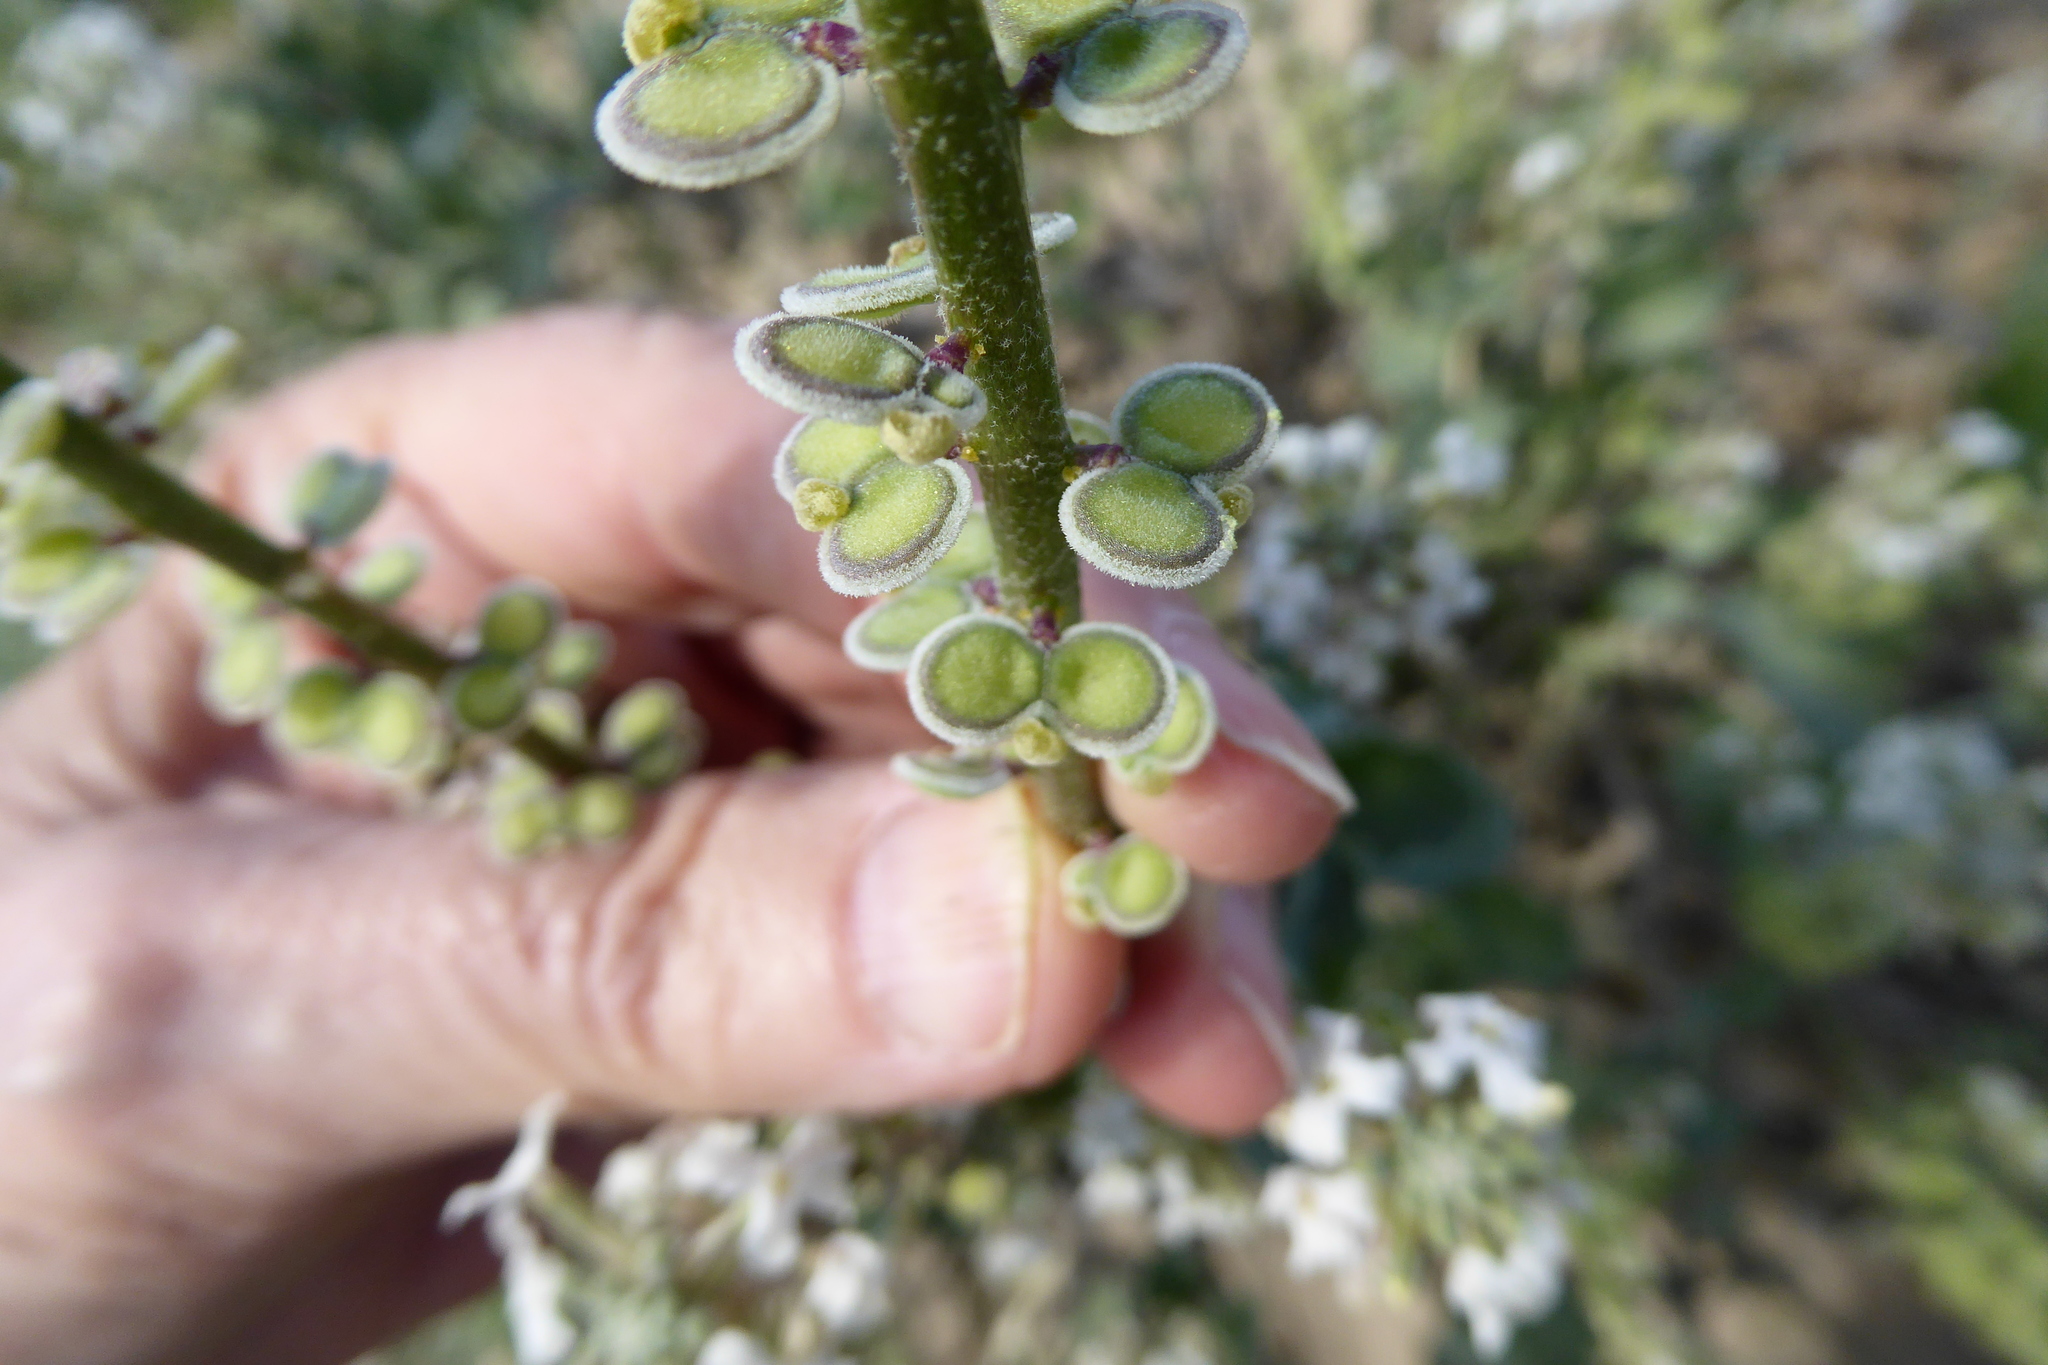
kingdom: Plantae
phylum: Tracheophyta
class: Magnoliopsida
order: Brassicales
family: Brassicaceae
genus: Dithyrea
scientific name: Dithyrea californica
